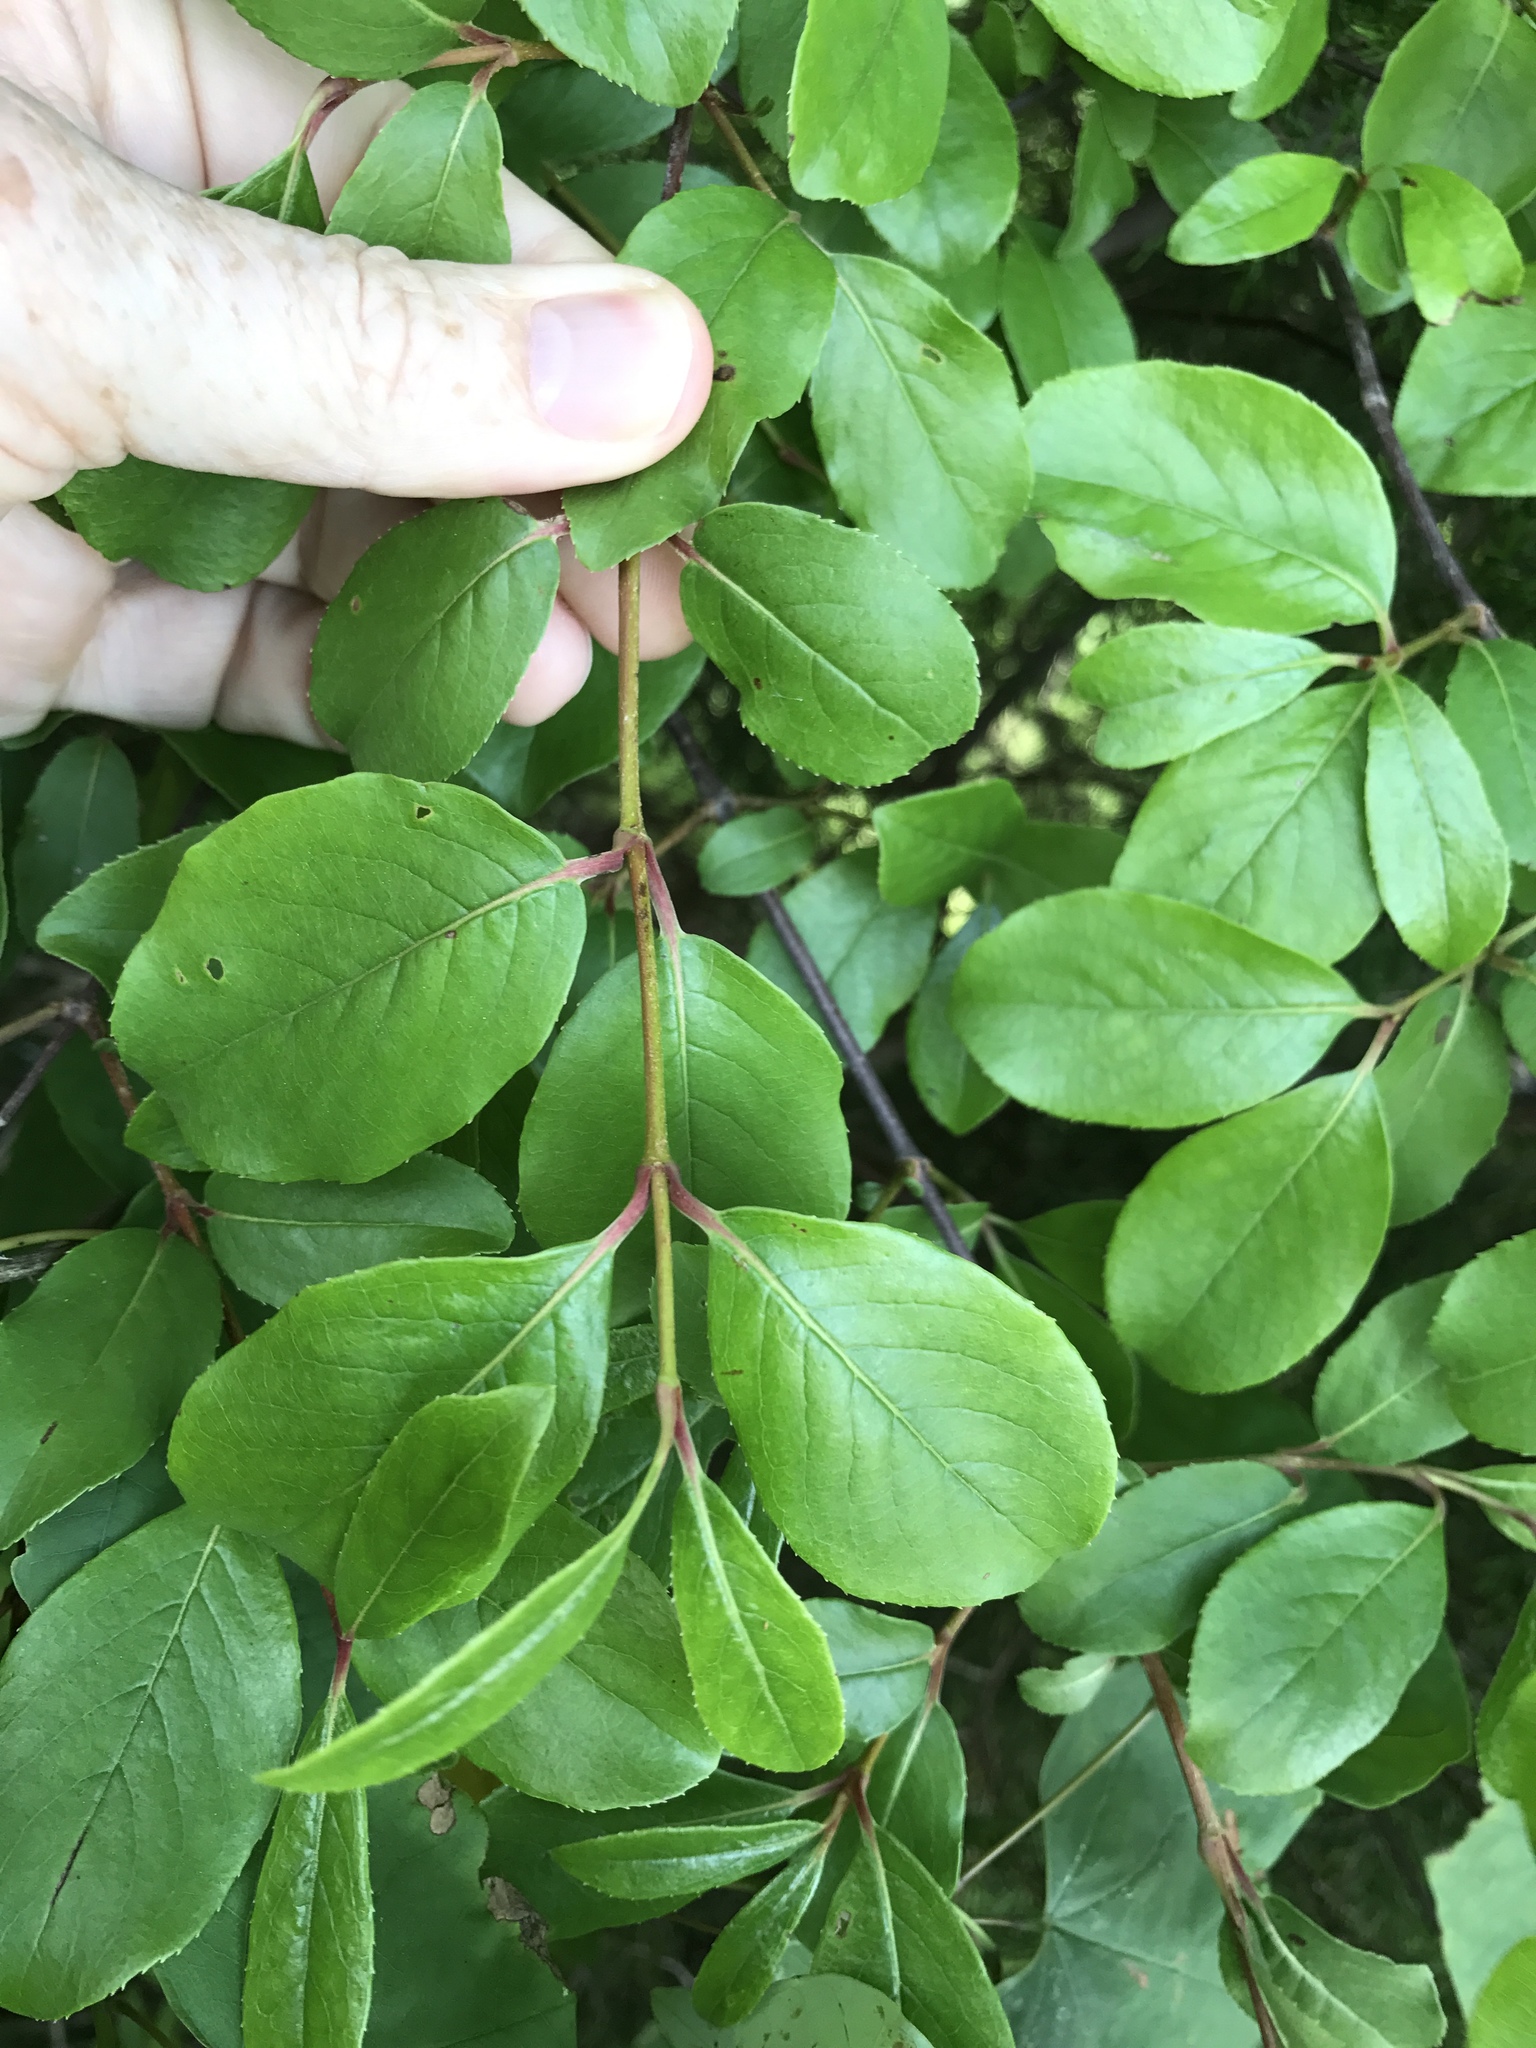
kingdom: Plantae
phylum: Tracheophyta
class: Magnoliopsida
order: Dipsacales
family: Viburnaceae
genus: Viburnum
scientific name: Viburnum rufidulum
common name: Blue haw
